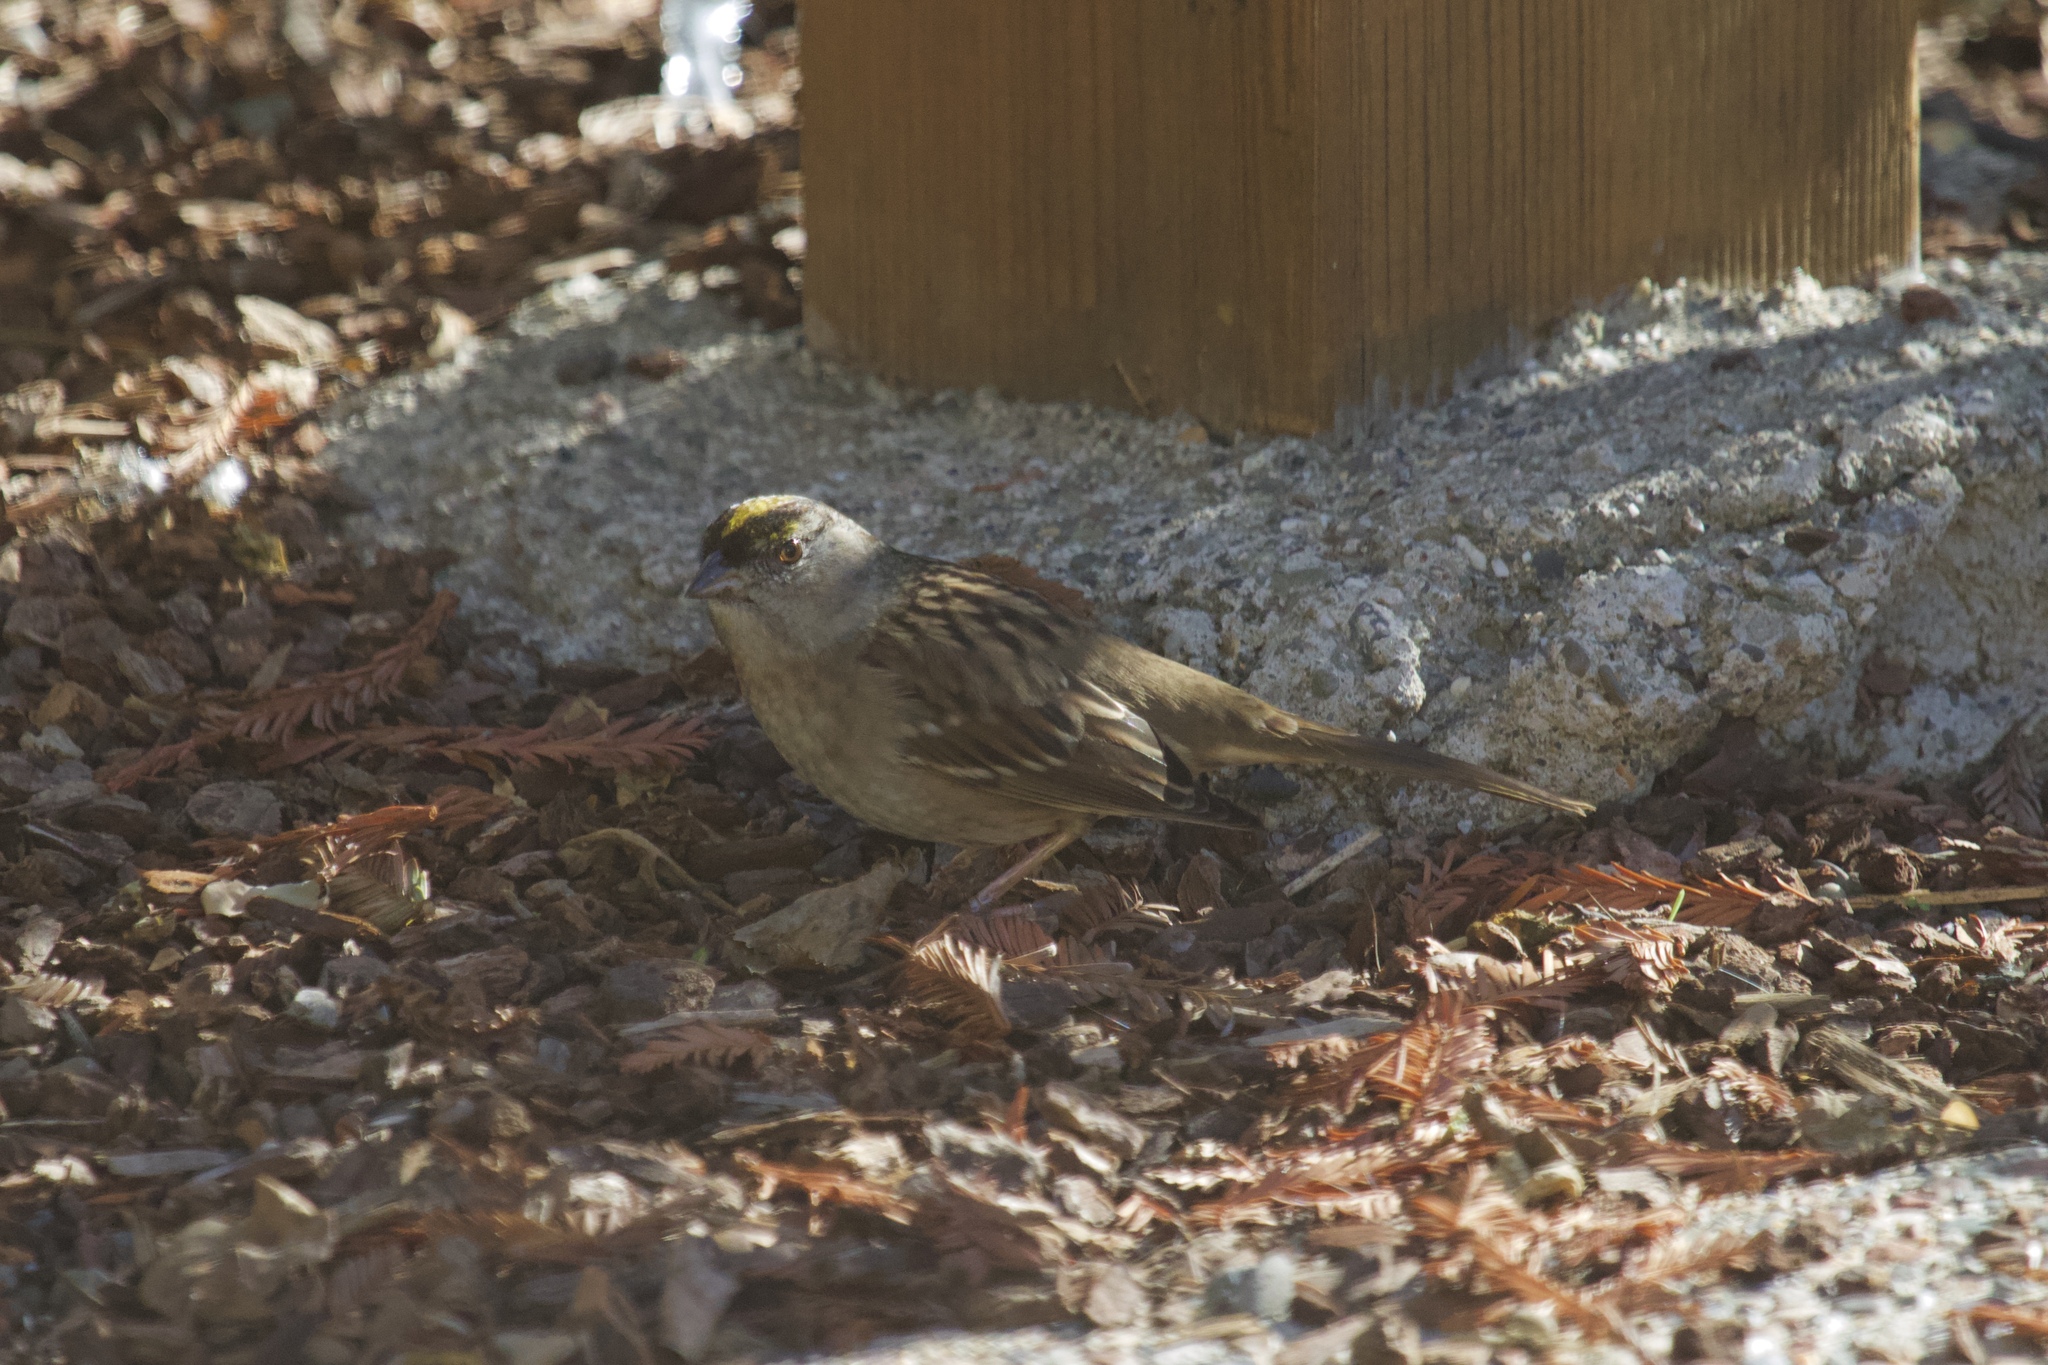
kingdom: Animalia
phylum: Chordata
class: Aves
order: Passeriformes
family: Passerellidae
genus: Zonotrichia
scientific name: Zonotrichia atricapilla
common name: Golden-crowned sparrow
